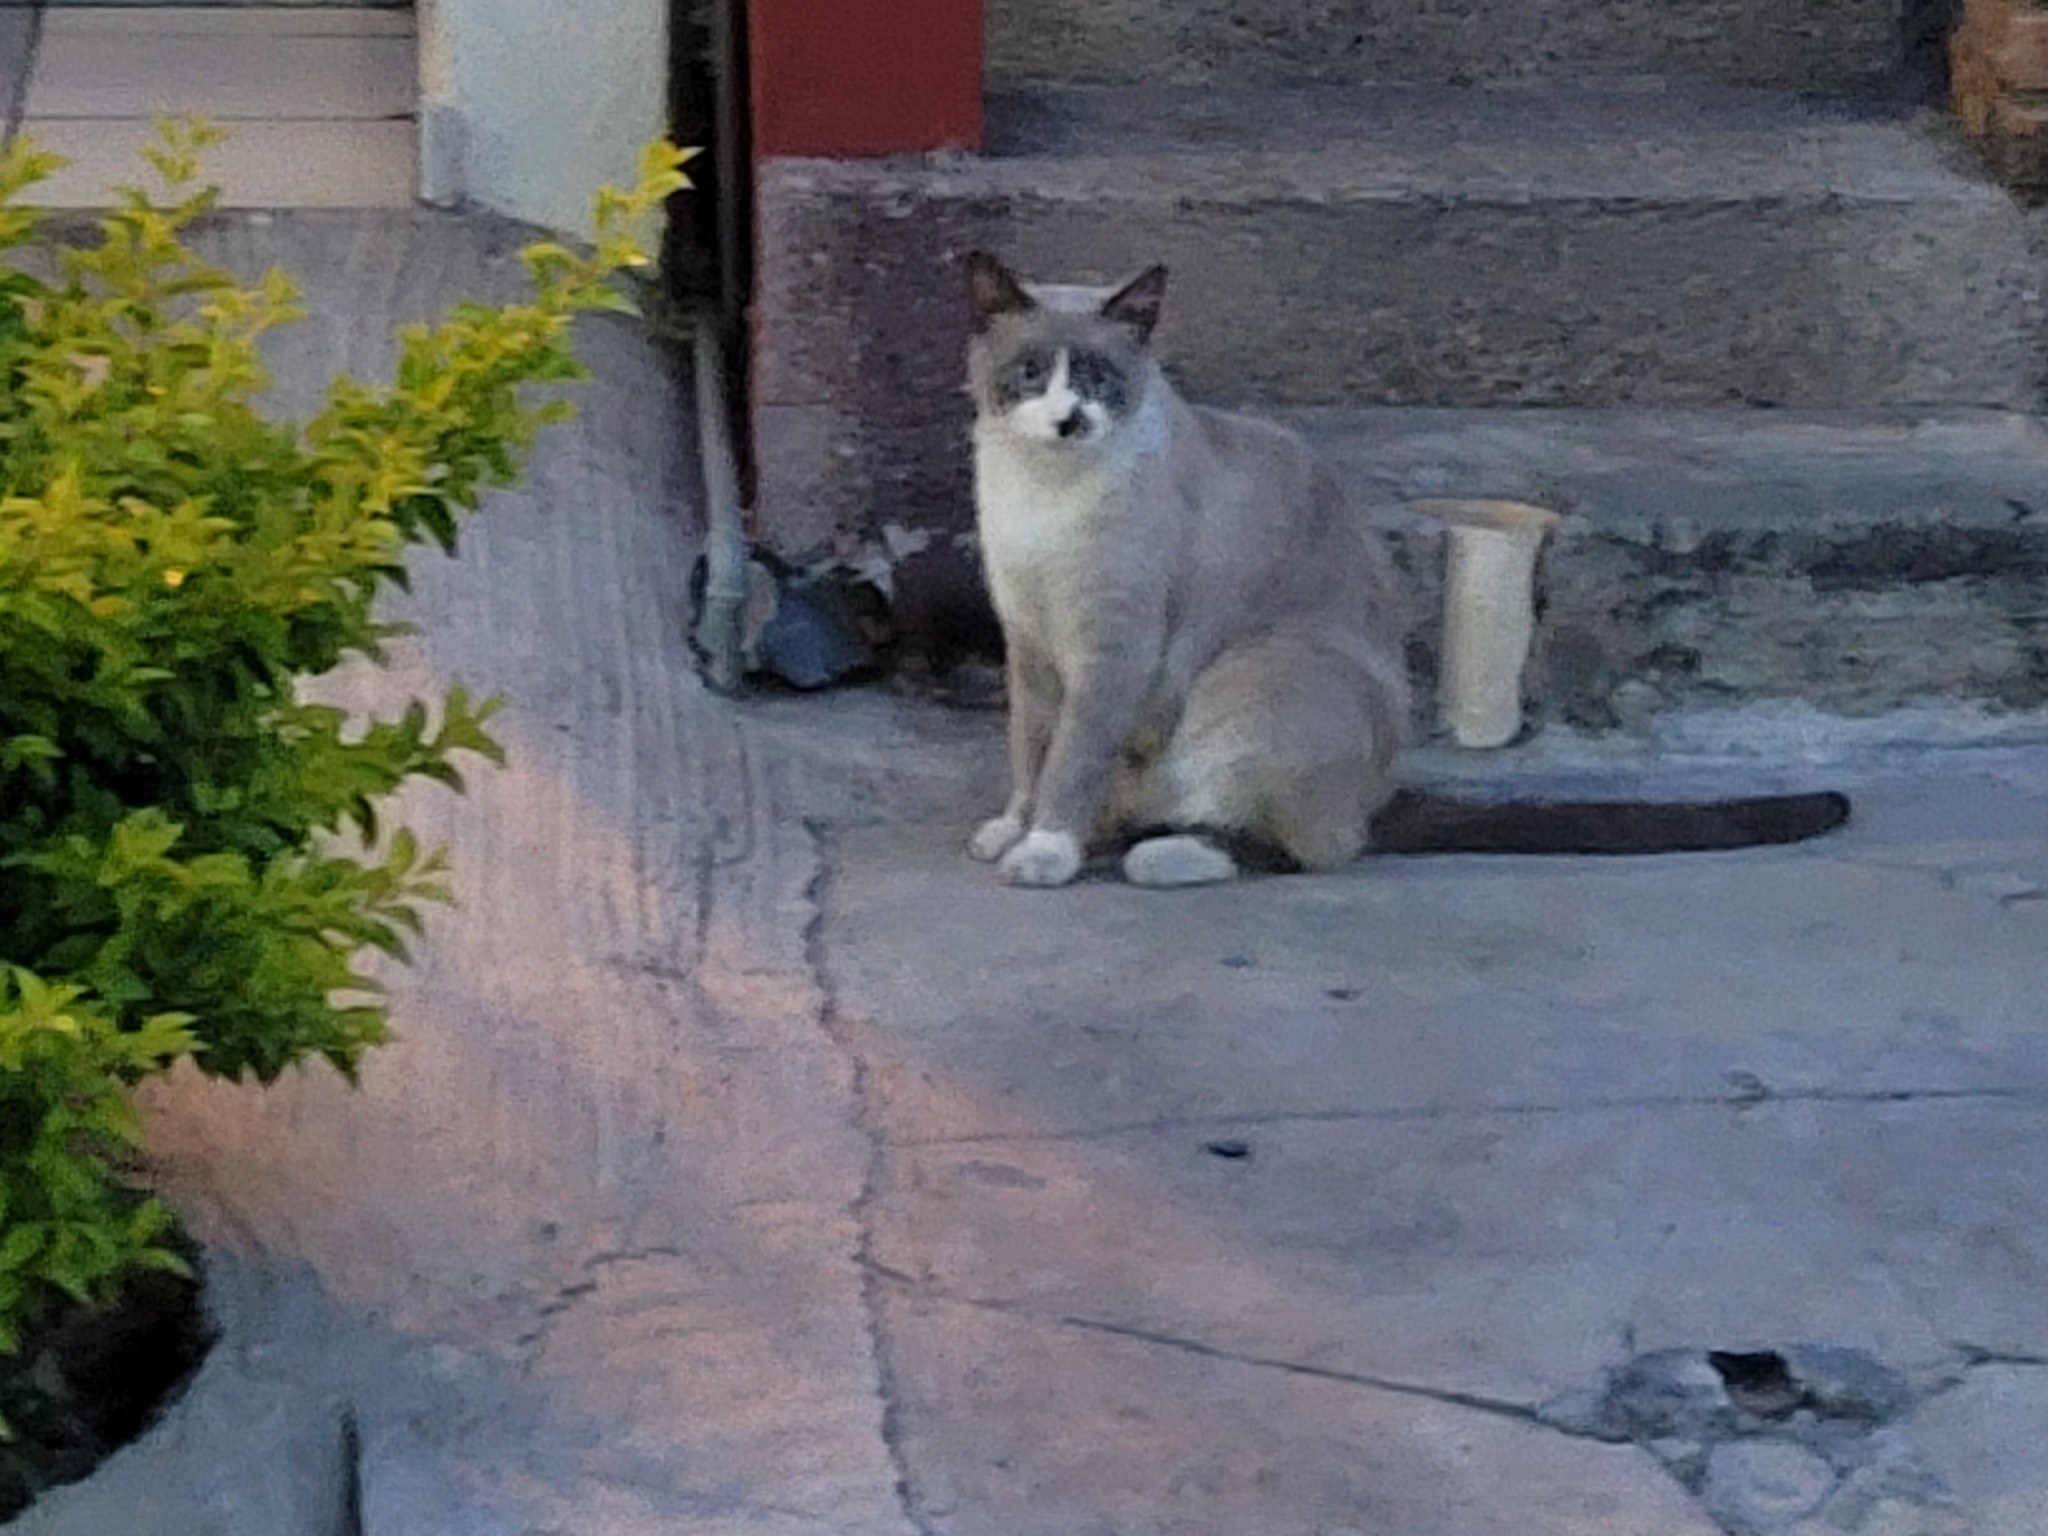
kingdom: Animalia
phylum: Chordata
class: Mammalia
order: Carnivora
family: Felidae
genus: Felis
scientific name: Felis catus
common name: Domestic cat
